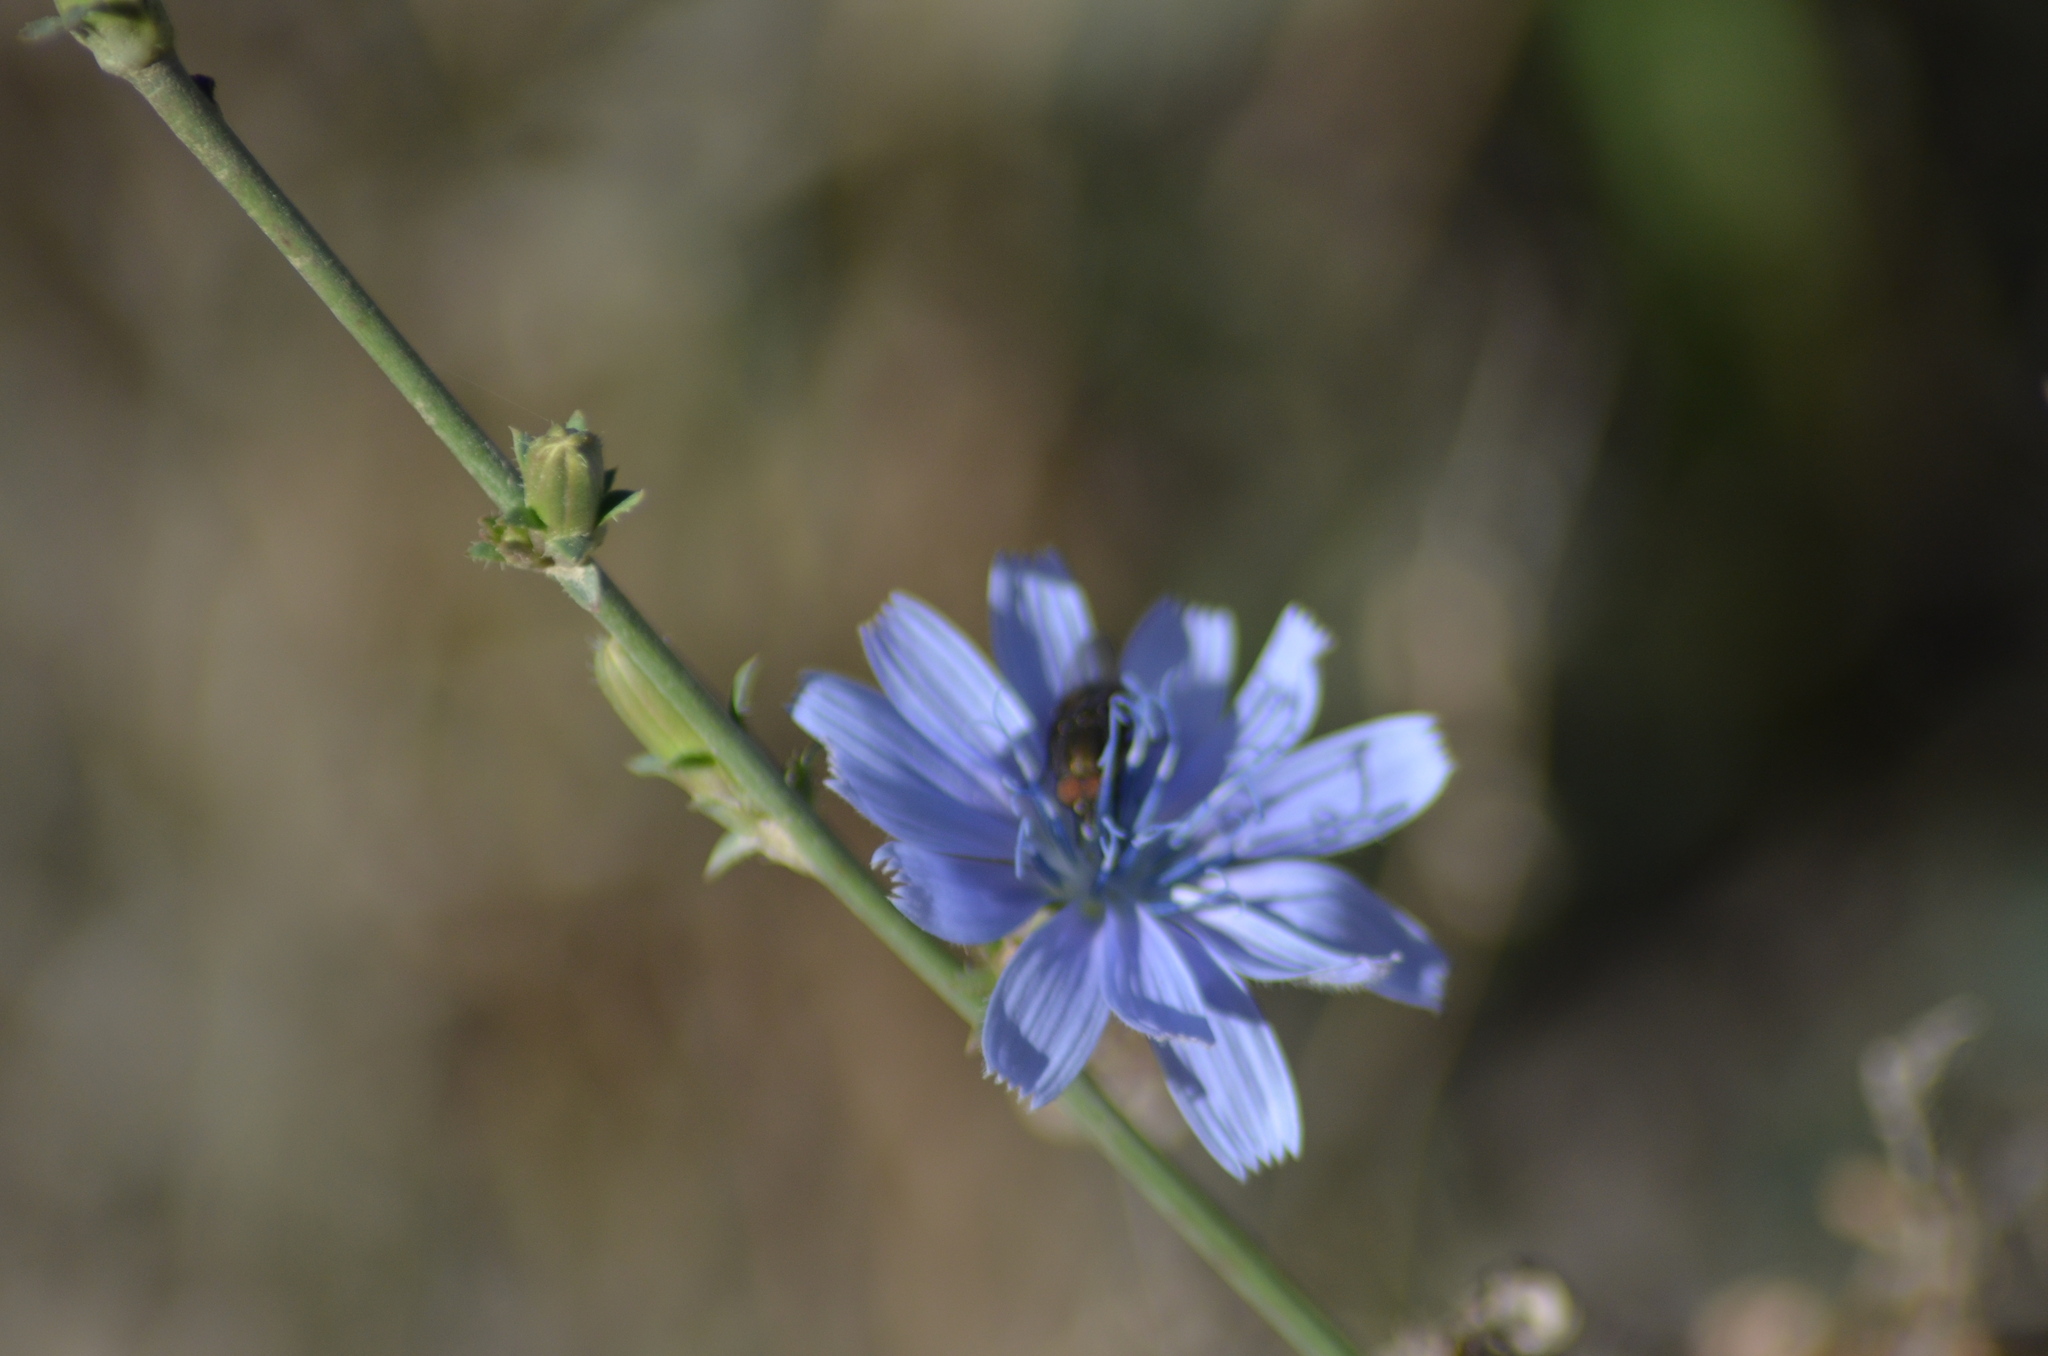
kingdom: Plantae
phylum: Tracheophyta
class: Magnoliopsida
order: Asterales
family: Asteraceae
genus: Cichorium
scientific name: Cichorium intybus
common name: Chicory
